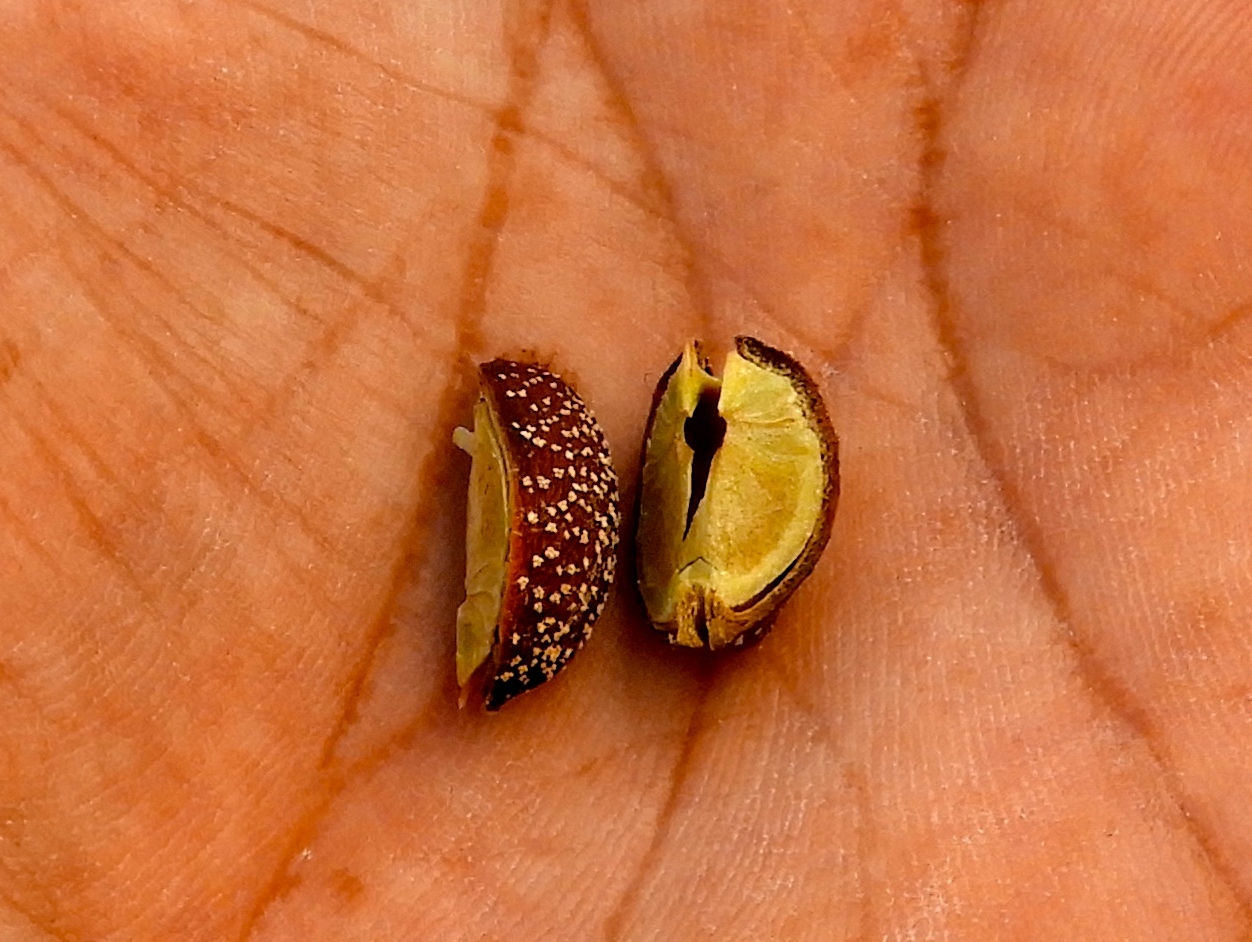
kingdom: Plantae
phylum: Tracheophyta
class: Magnoliopsida
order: Malpighiales
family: Picrodendraceae
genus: Piranhea
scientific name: Piranhea mexicana
